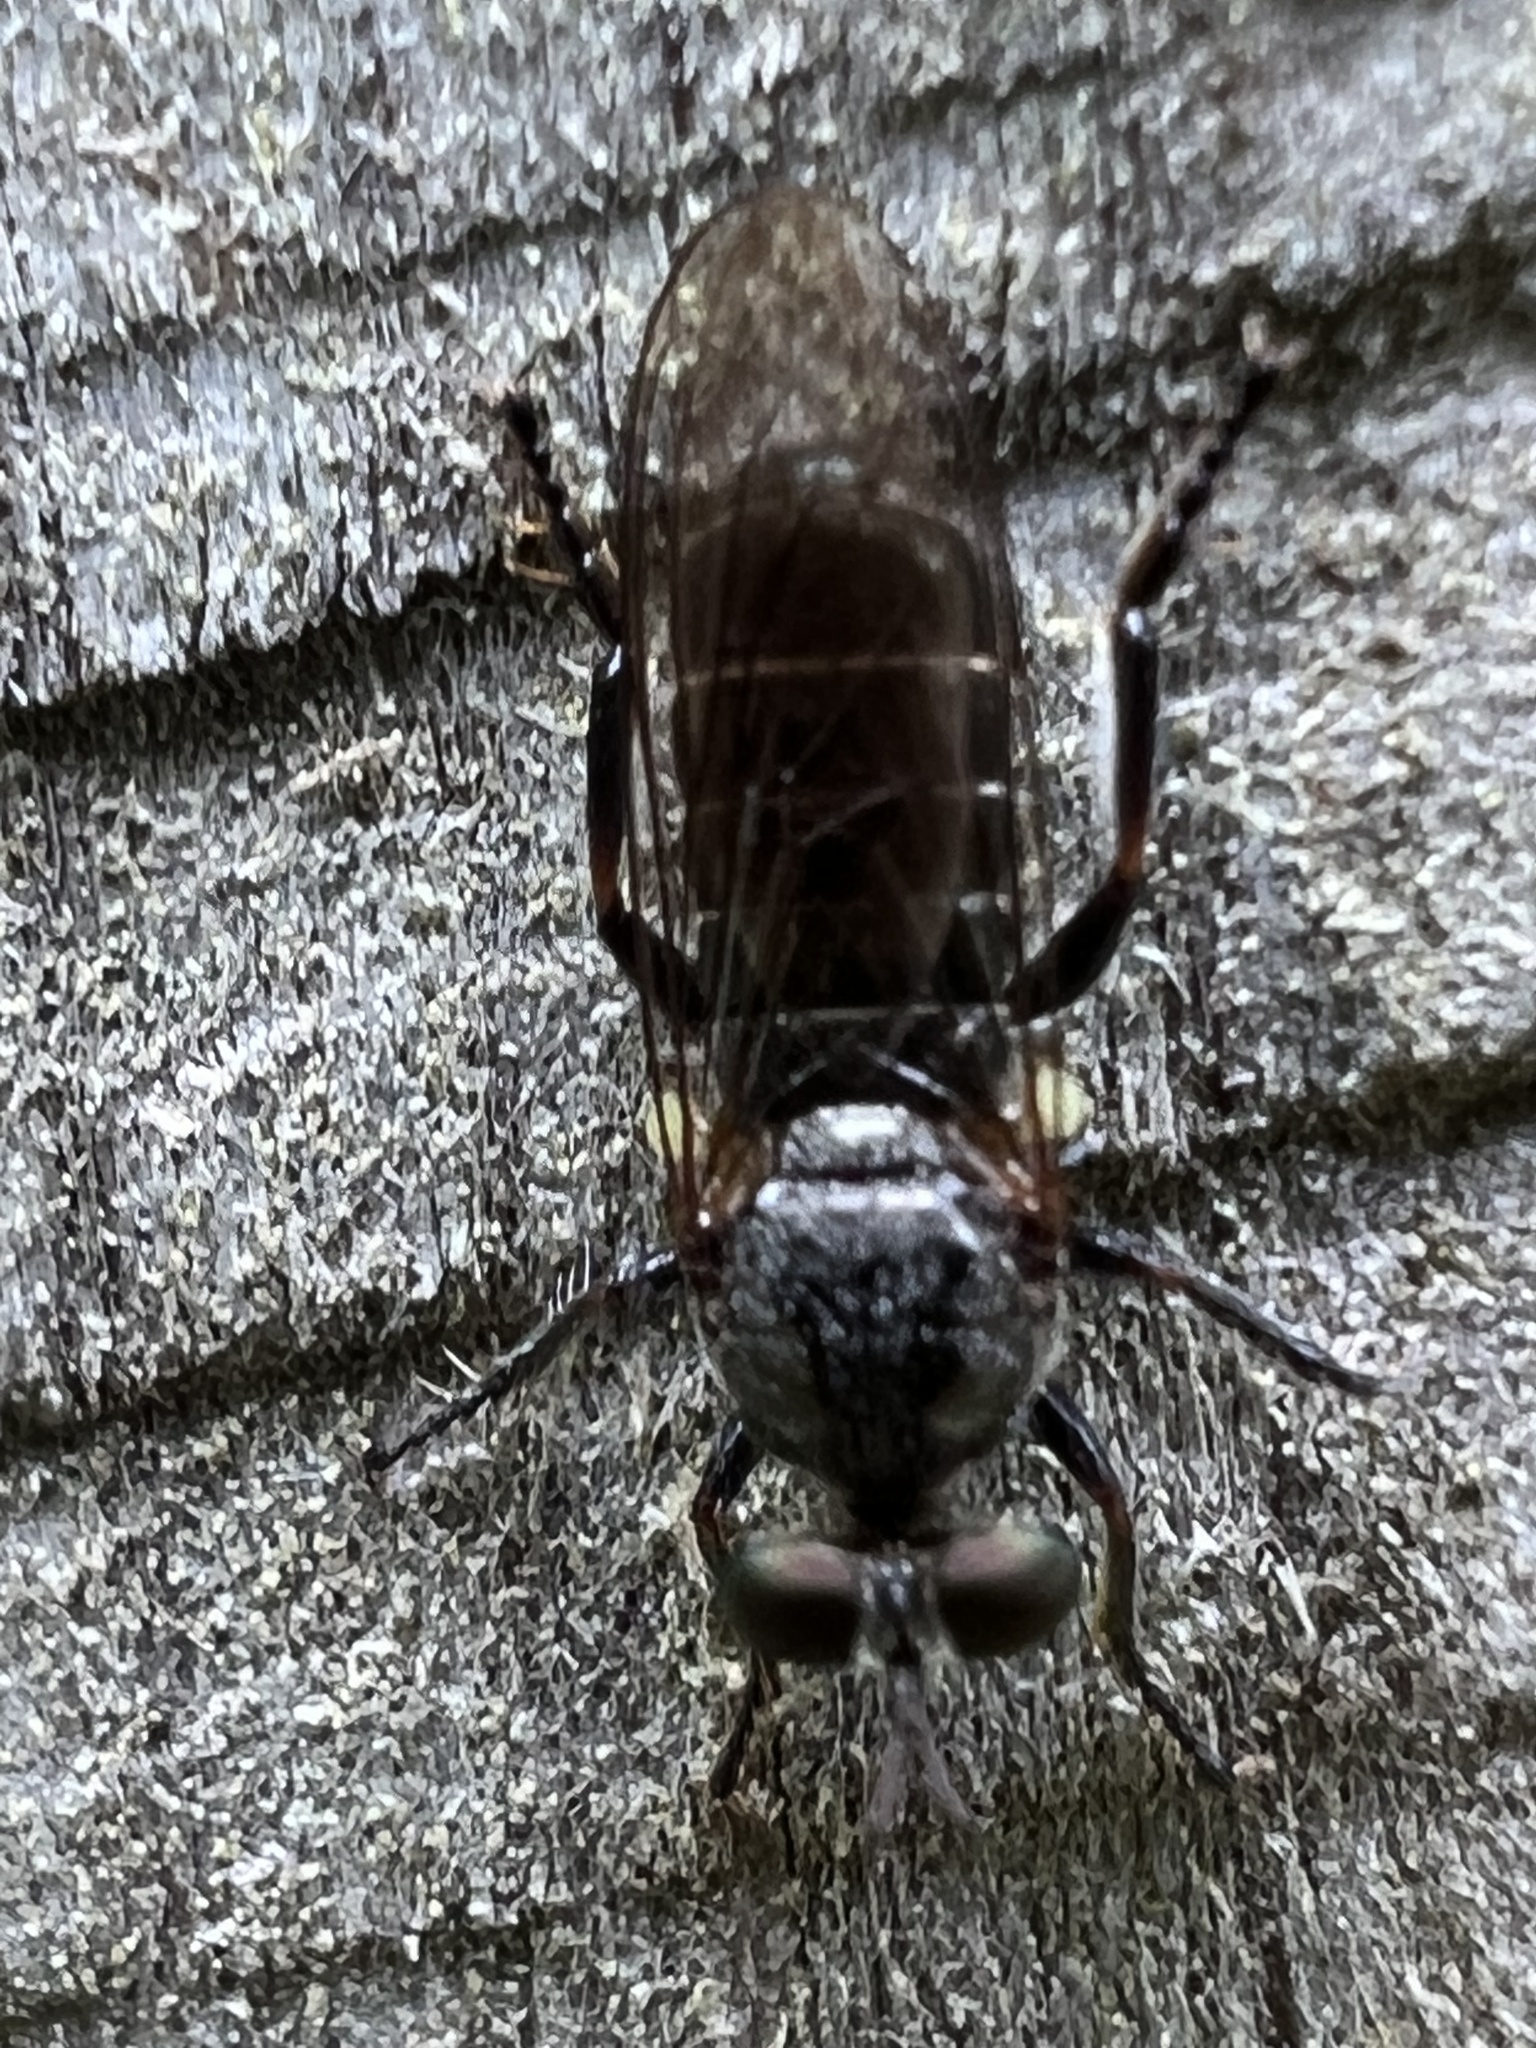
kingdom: Animalia
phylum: Arthropoda
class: Insecta
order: Diptera
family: Asilidae
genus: Atomosia
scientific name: Atomosia puella
